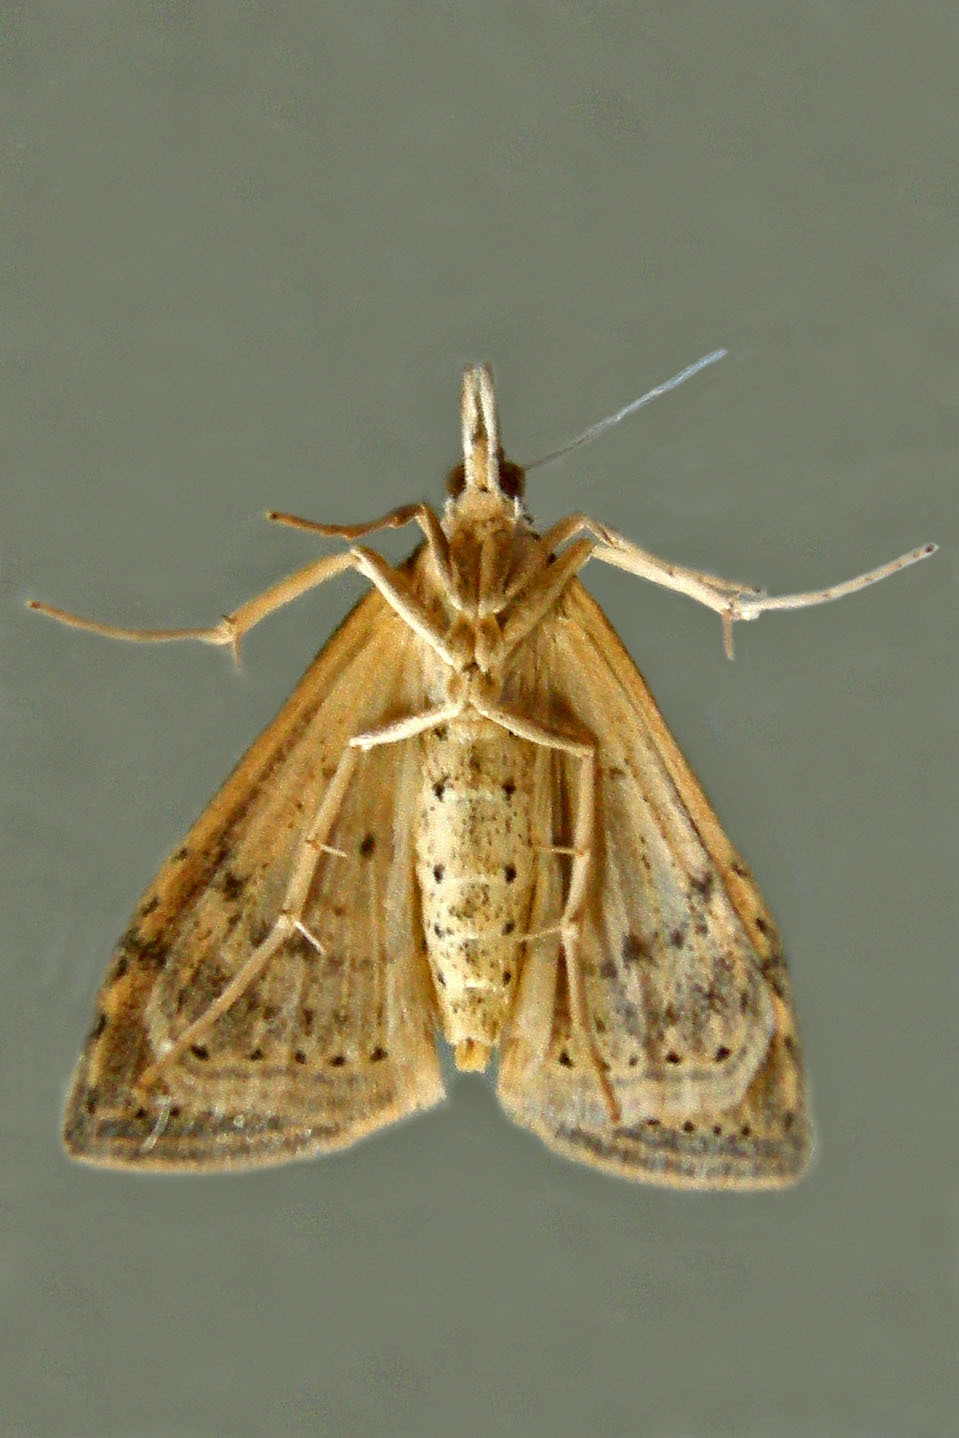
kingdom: Animalia
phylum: Arthropoda
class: Insecta
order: Lepidoptera
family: Crambidae
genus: Udea
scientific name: Udea rubigalis
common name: Celery leaftier moth
